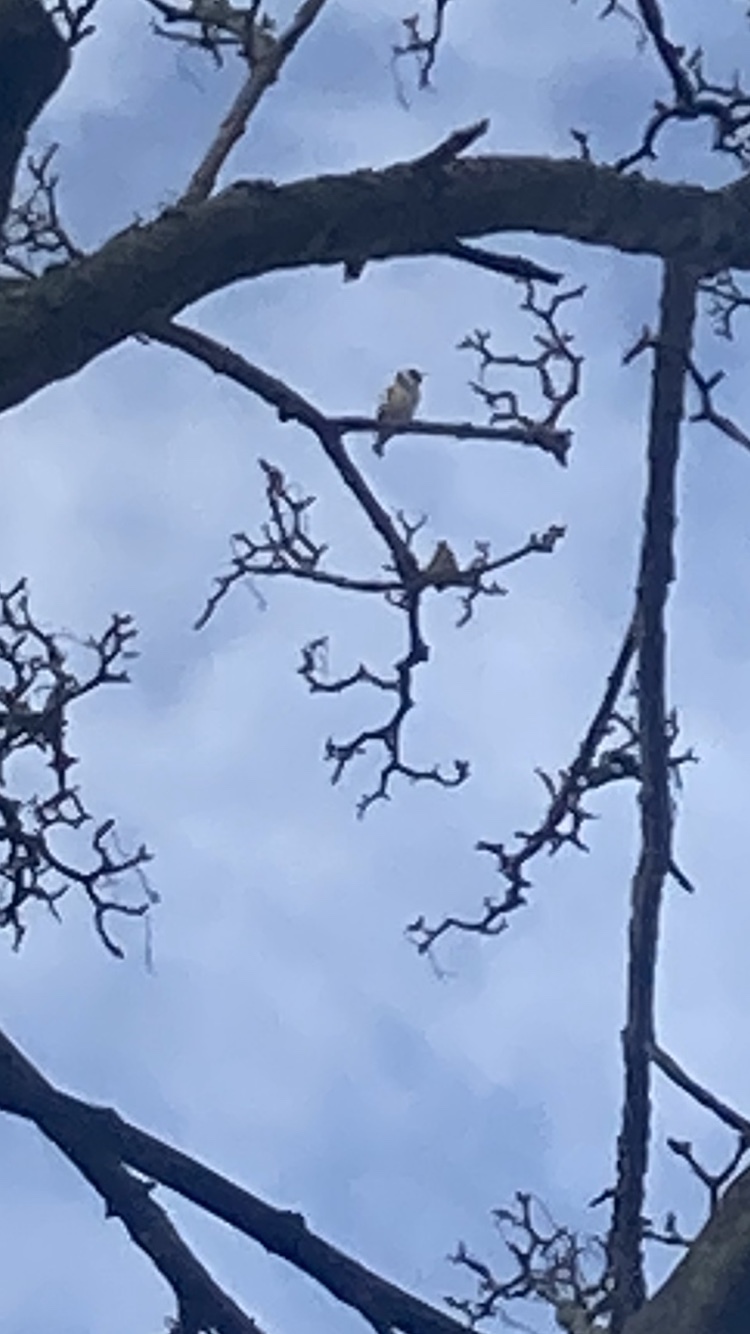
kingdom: Animalia
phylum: Chordata
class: Aves
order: Passeriformes
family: Fringillidae
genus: Carduelis
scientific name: Carduelis carduelis
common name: European goldfinch
